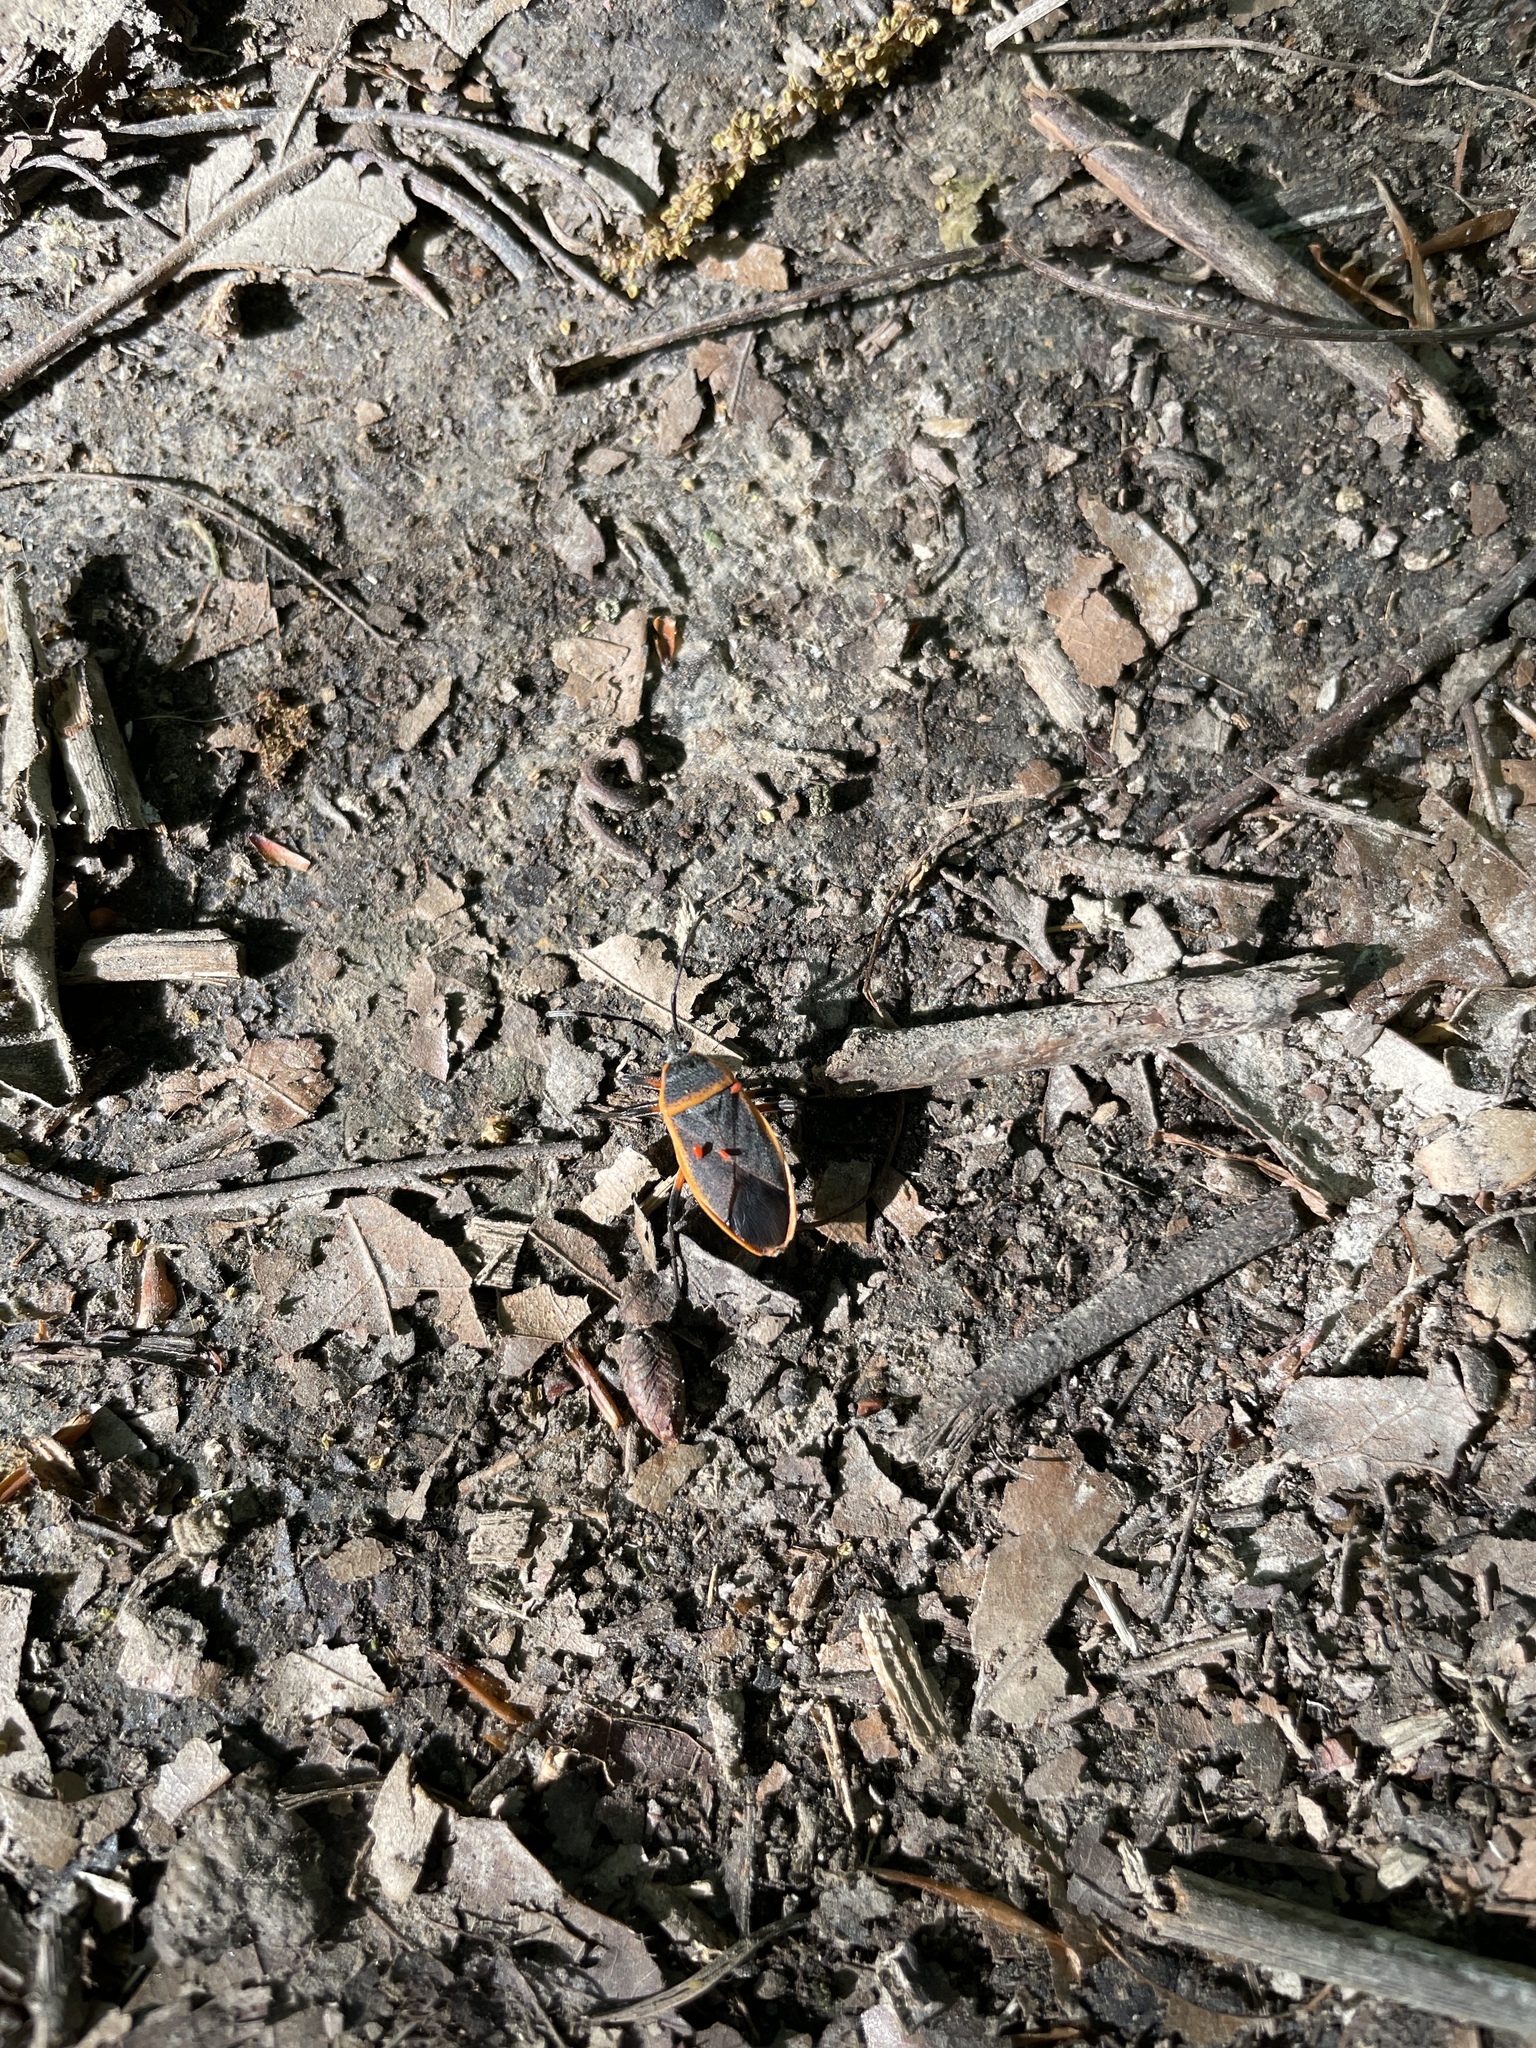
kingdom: Animalia
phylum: Arthropoda
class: Insecta
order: Hemiptera
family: Largidae
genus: Largus
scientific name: Largus succinctus
